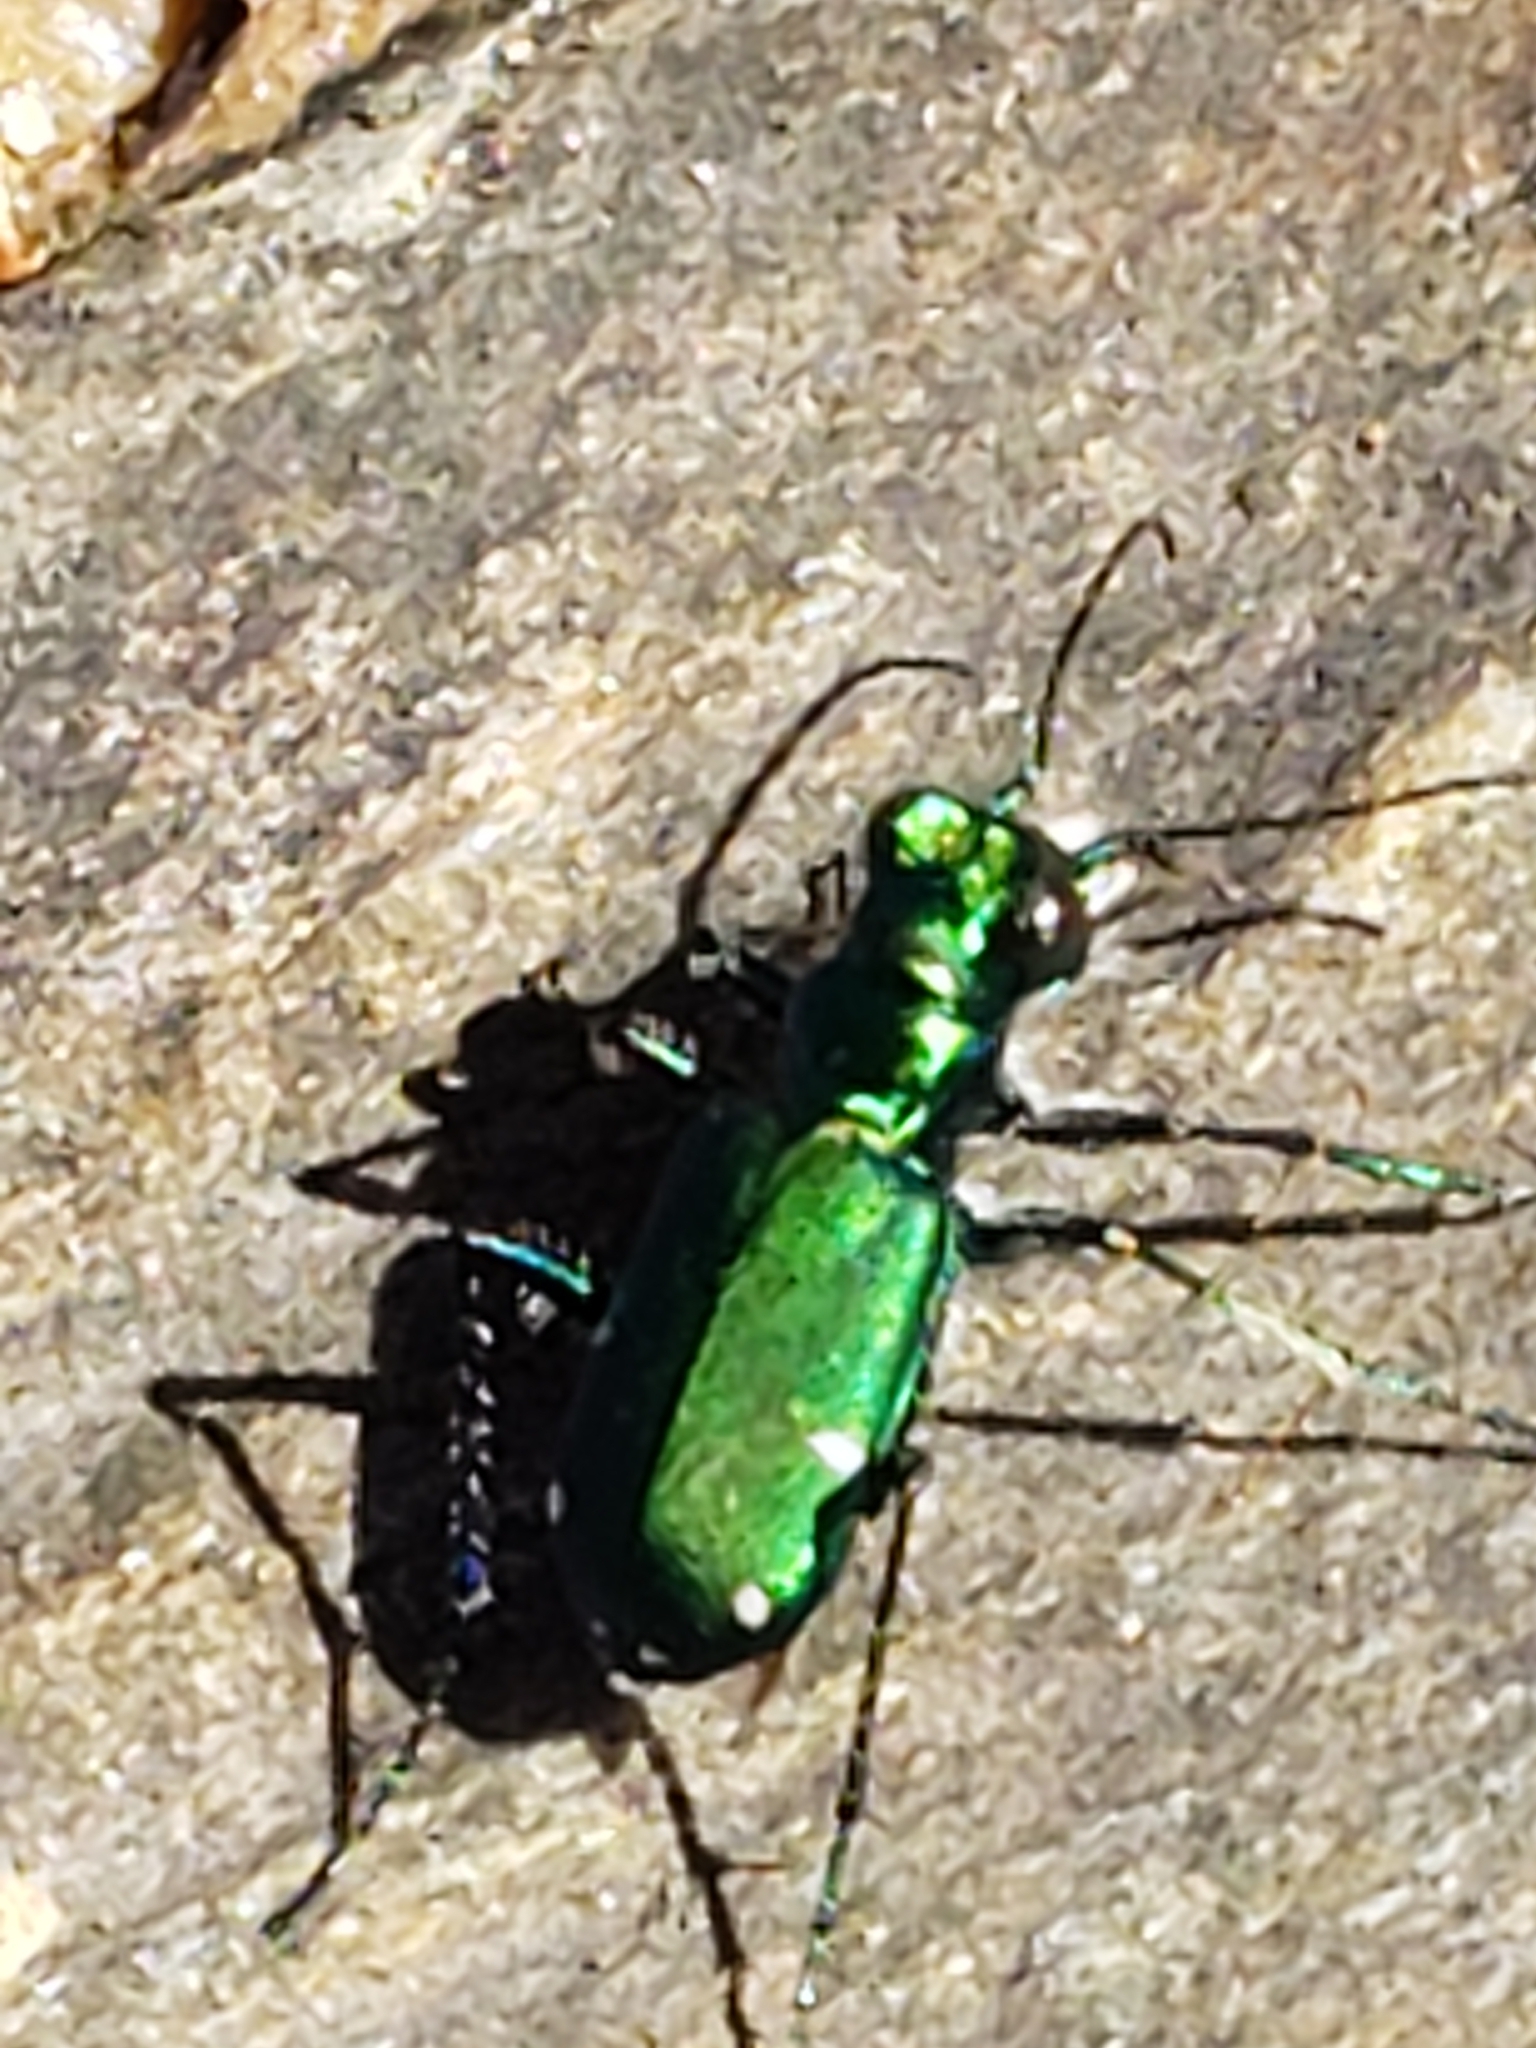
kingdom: Animalia
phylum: Arthropoda
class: Insecta
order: Coleoptera
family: Carabidae
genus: Cicindela
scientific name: Cicindela sexguttata
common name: Six-spotted tiger beetle
